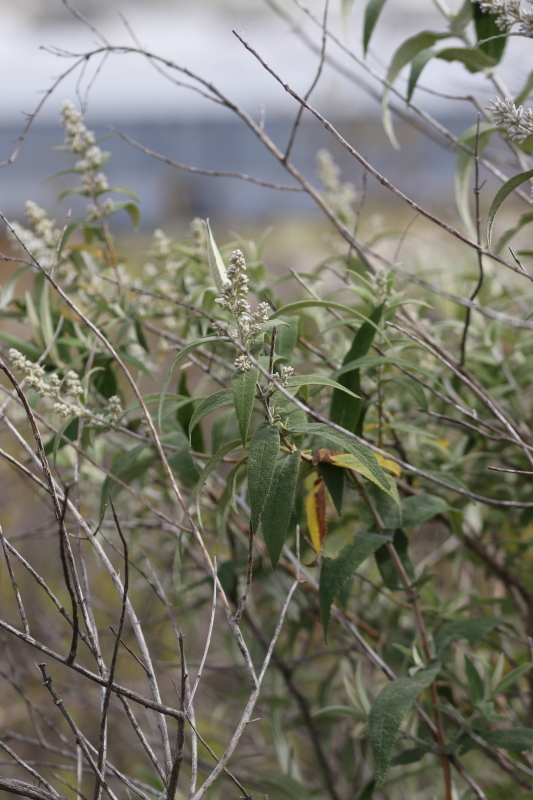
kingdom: Plantae
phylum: Tracheophyta
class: Magnoliopsida
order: Lamiales
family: Scrophulariaceae
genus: Buddleja
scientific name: Buddleja salviifolia
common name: Sagewood
